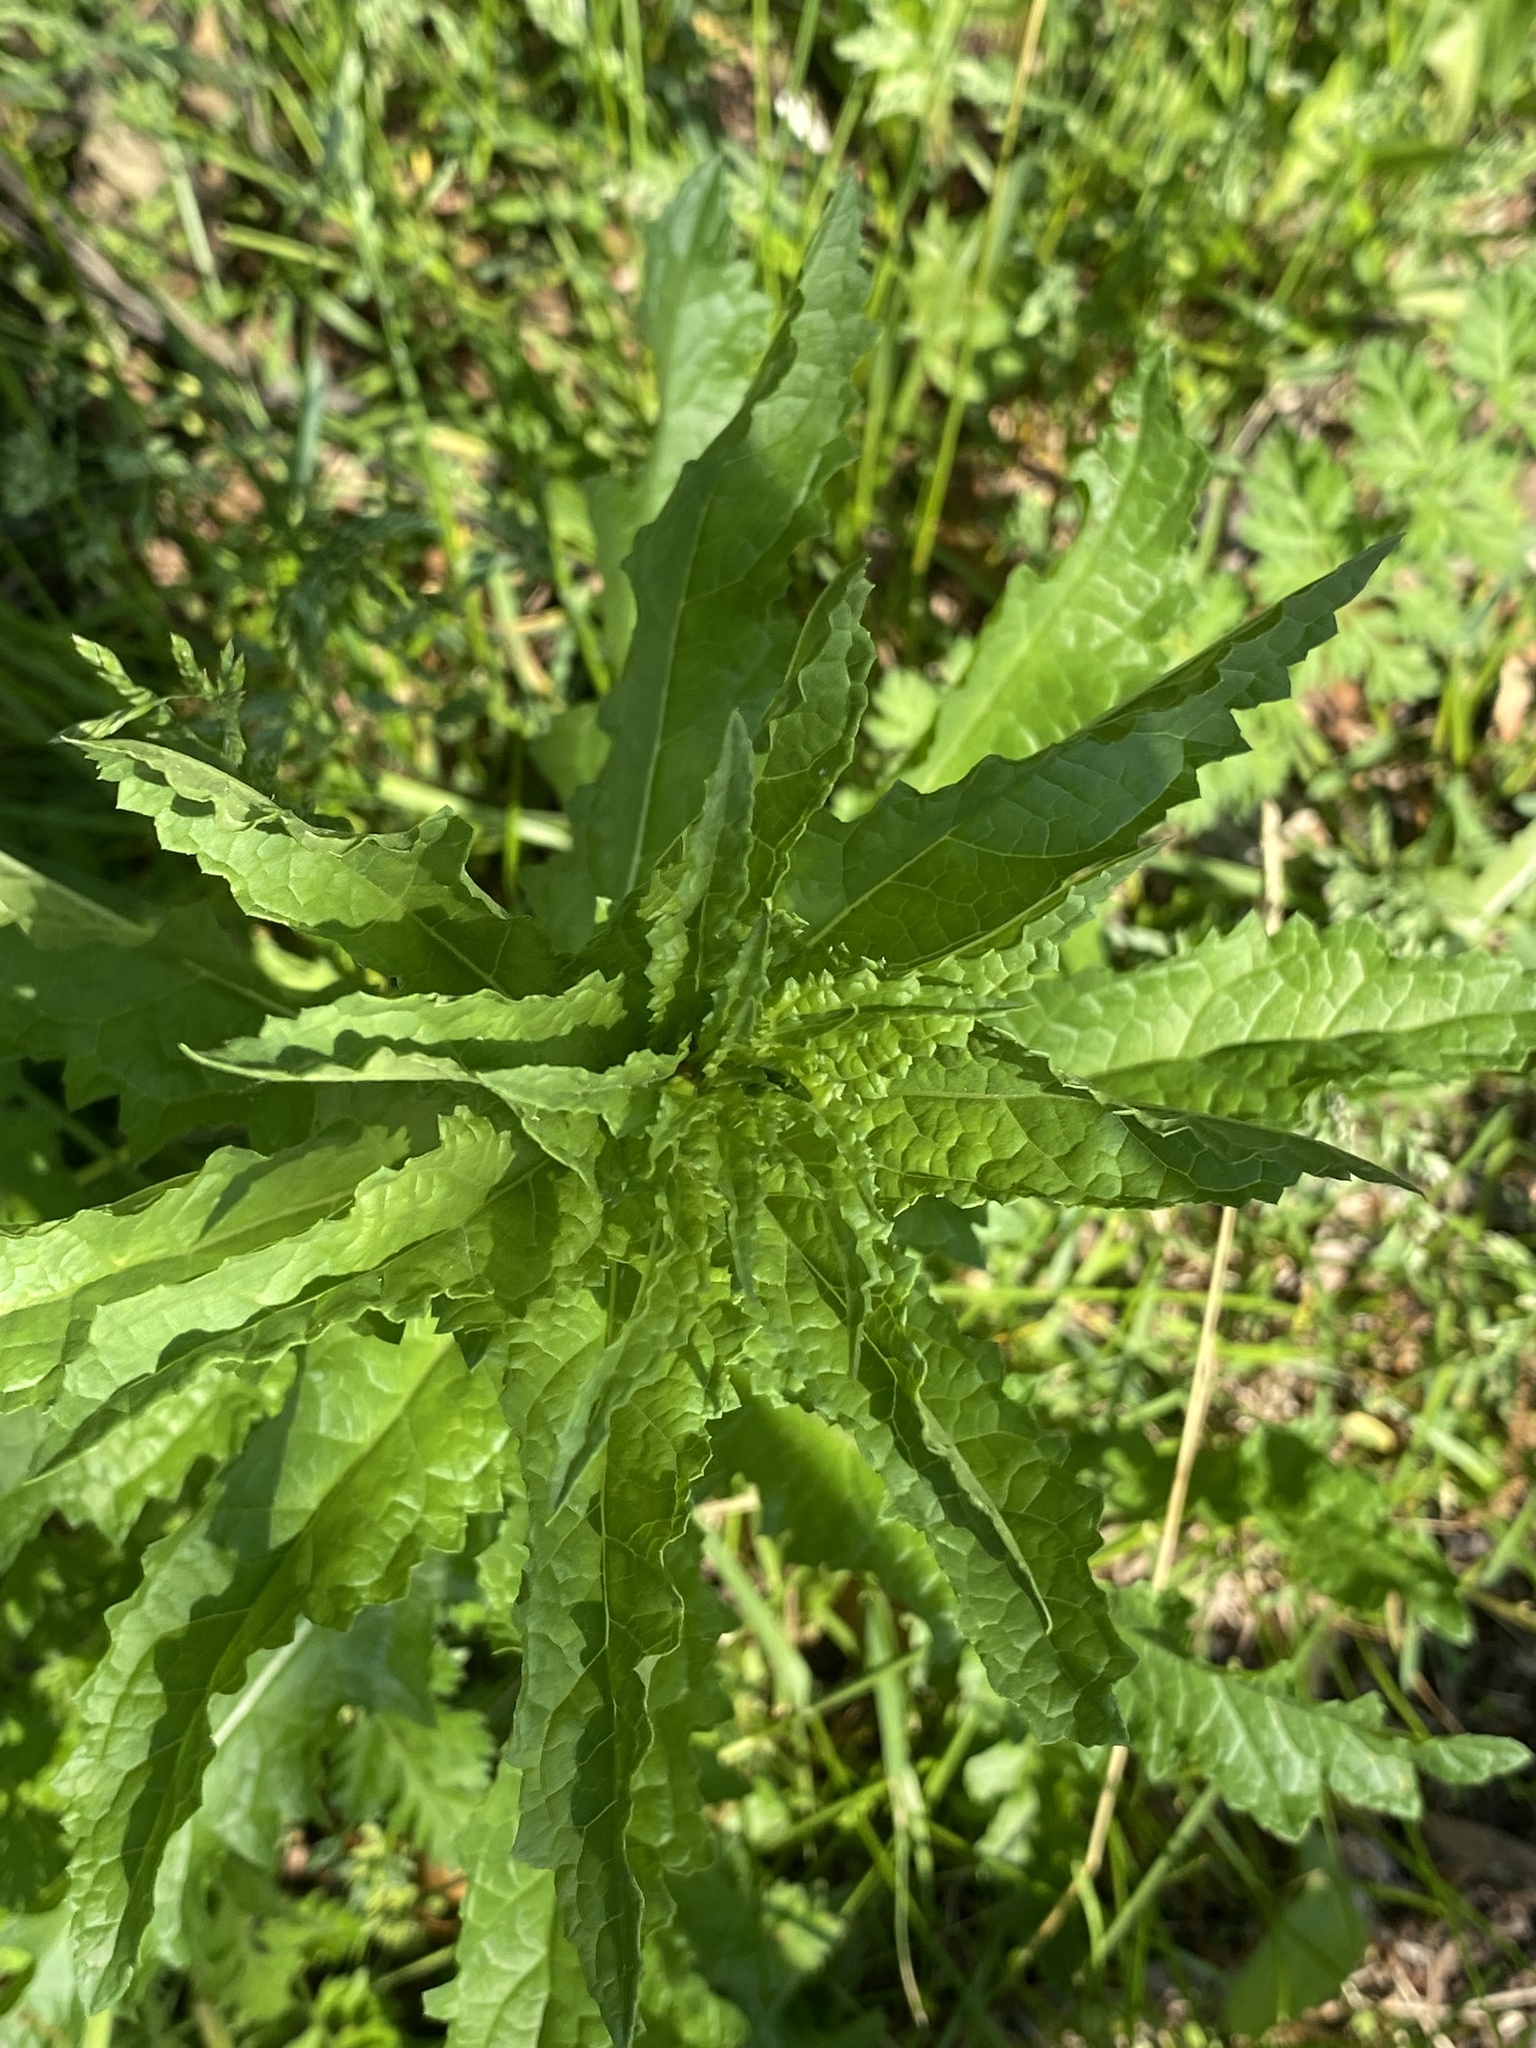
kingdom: Plantae
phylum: Tracheophyta
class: Magnoliopsida
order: Lamiales
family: Scrophulariaceae
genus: Verbascum
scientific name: Verbascum blattaria
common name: Moth mullein
